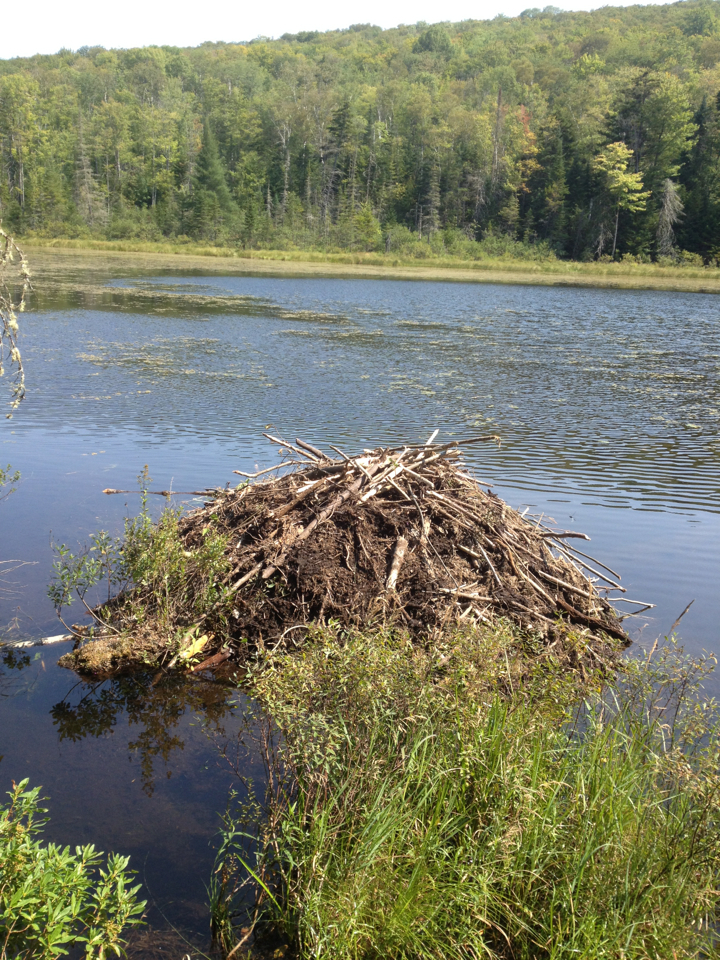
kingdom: Animalia
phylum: Chordata
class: Mammalia
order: Rodentia
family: Castoridae
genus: Castor
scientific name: Castor canadensis
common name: American beaver
